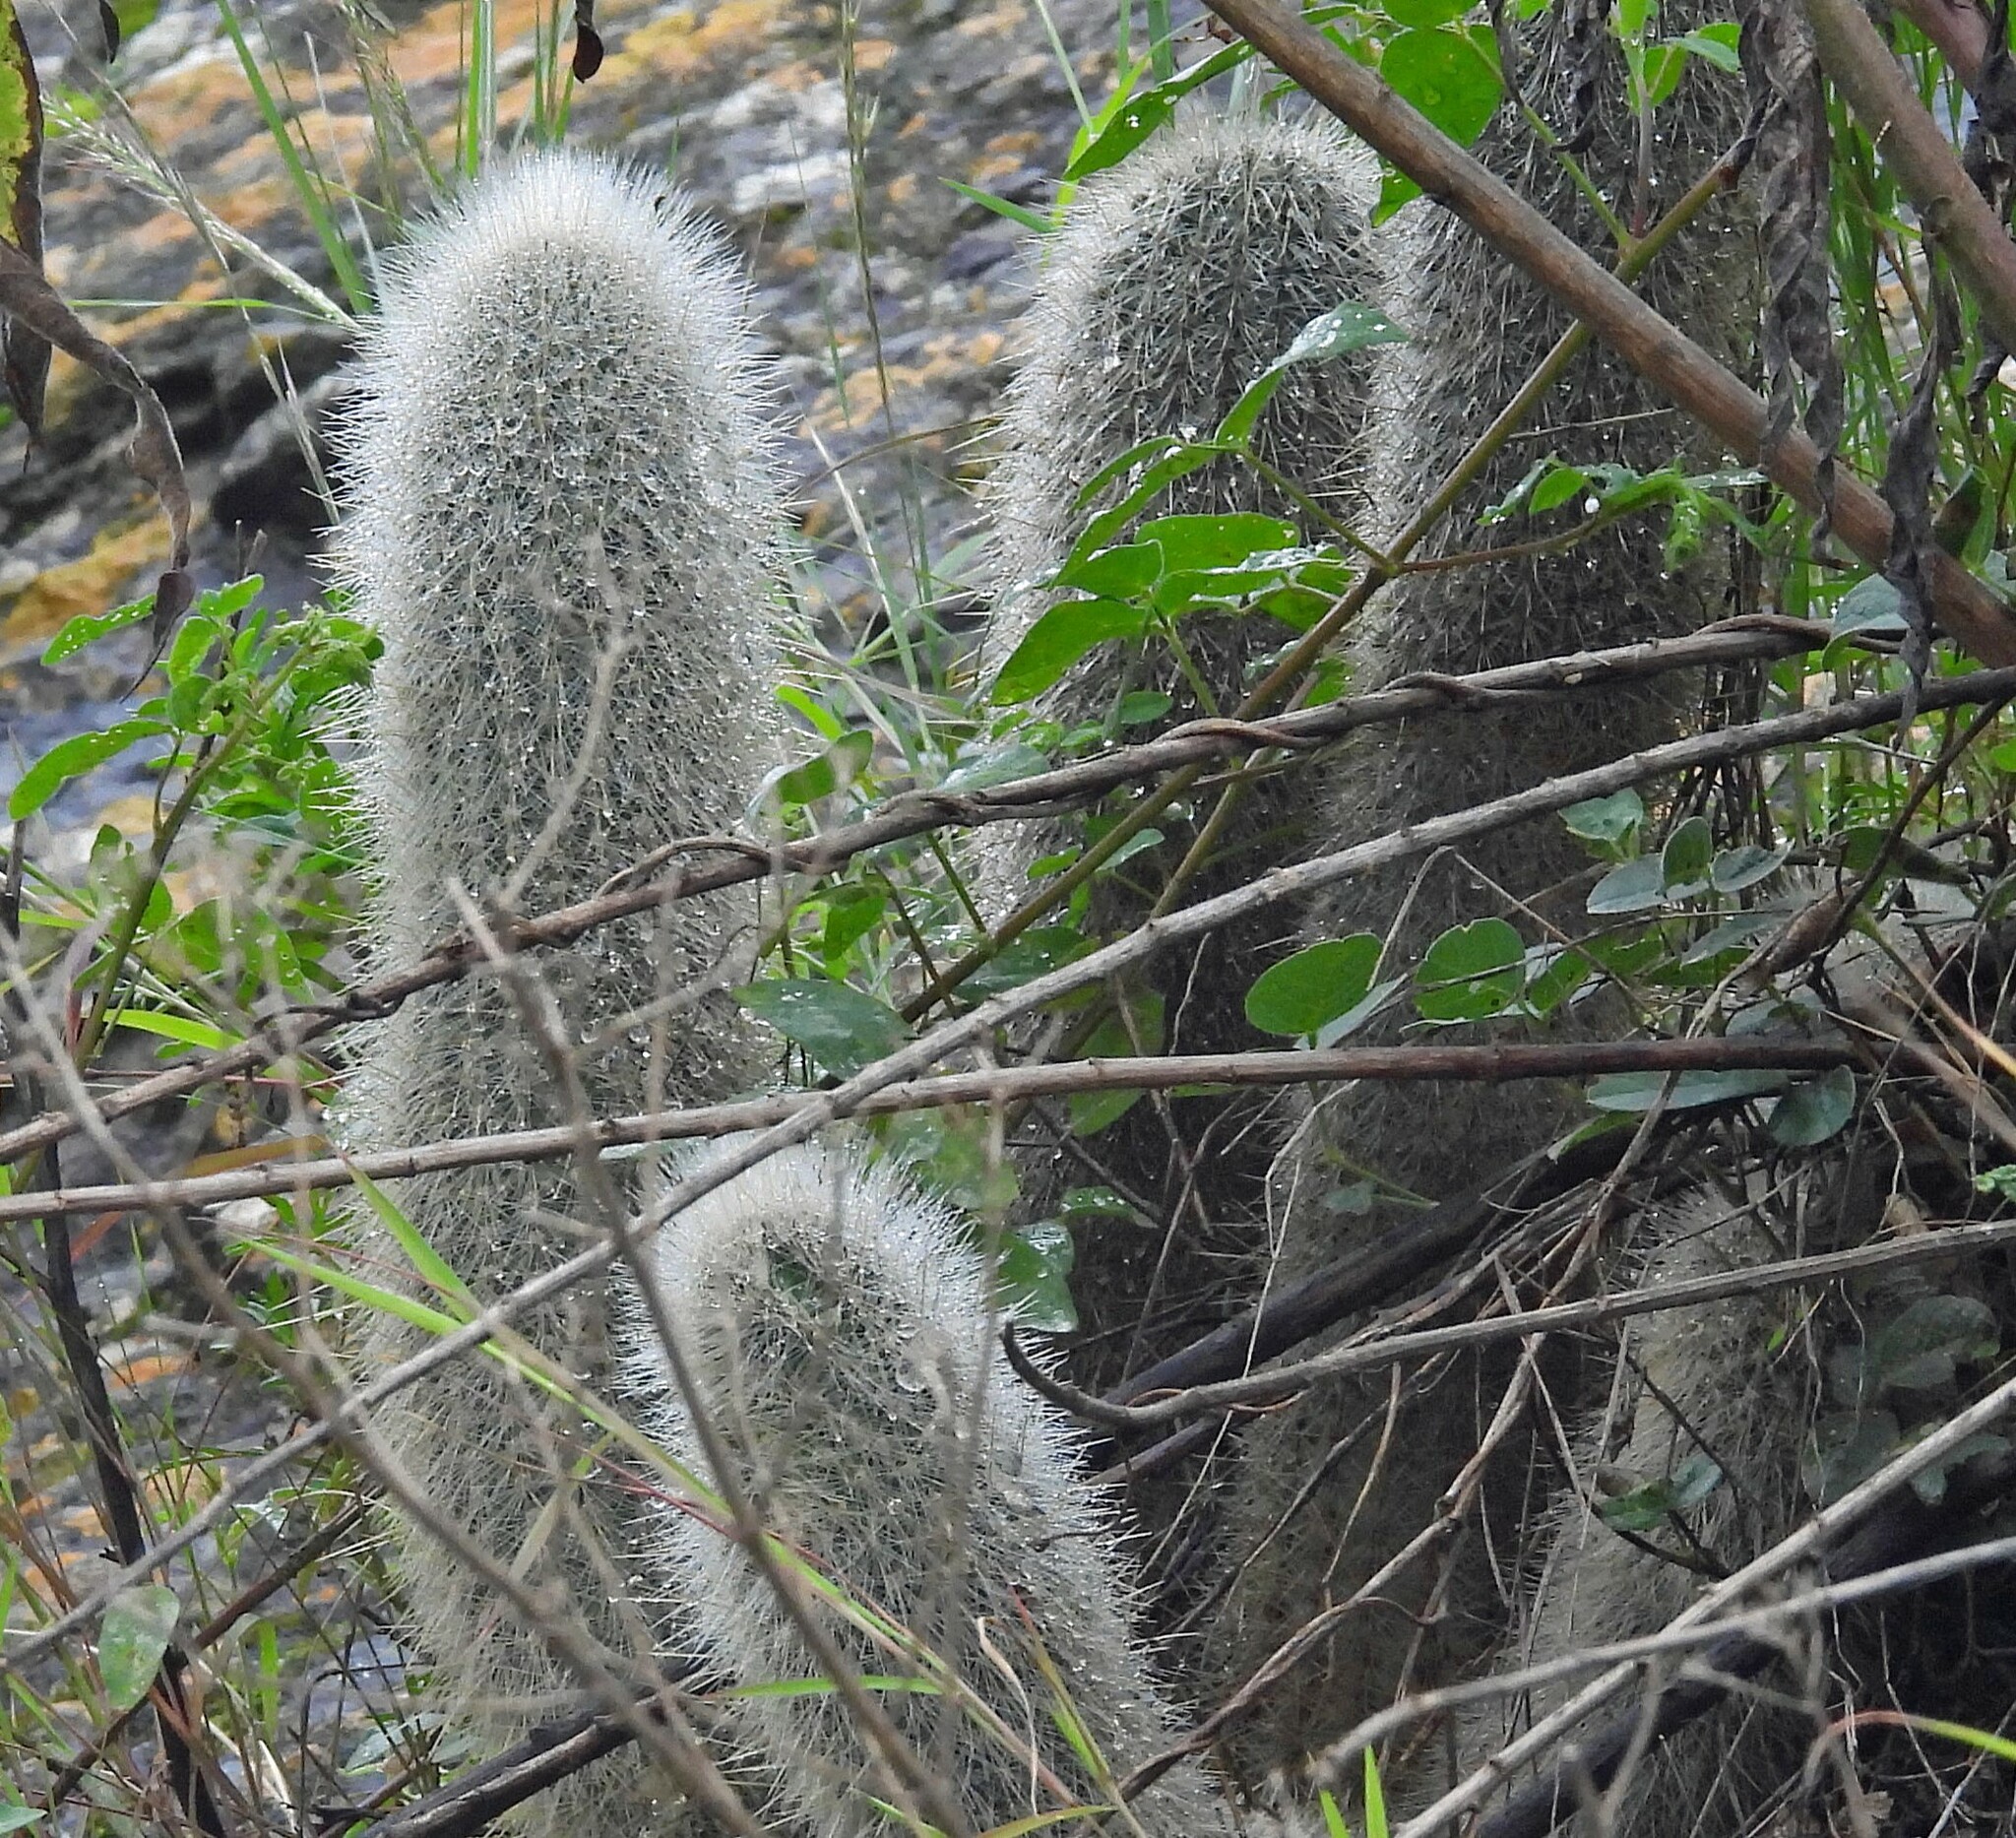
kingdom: Plantae
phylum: Tracheophyta
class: Magnoliopsida
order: Caryophyllales
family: Cactaceae
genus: Cleistocactus
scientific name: Cleistocactus hyalacanthus
